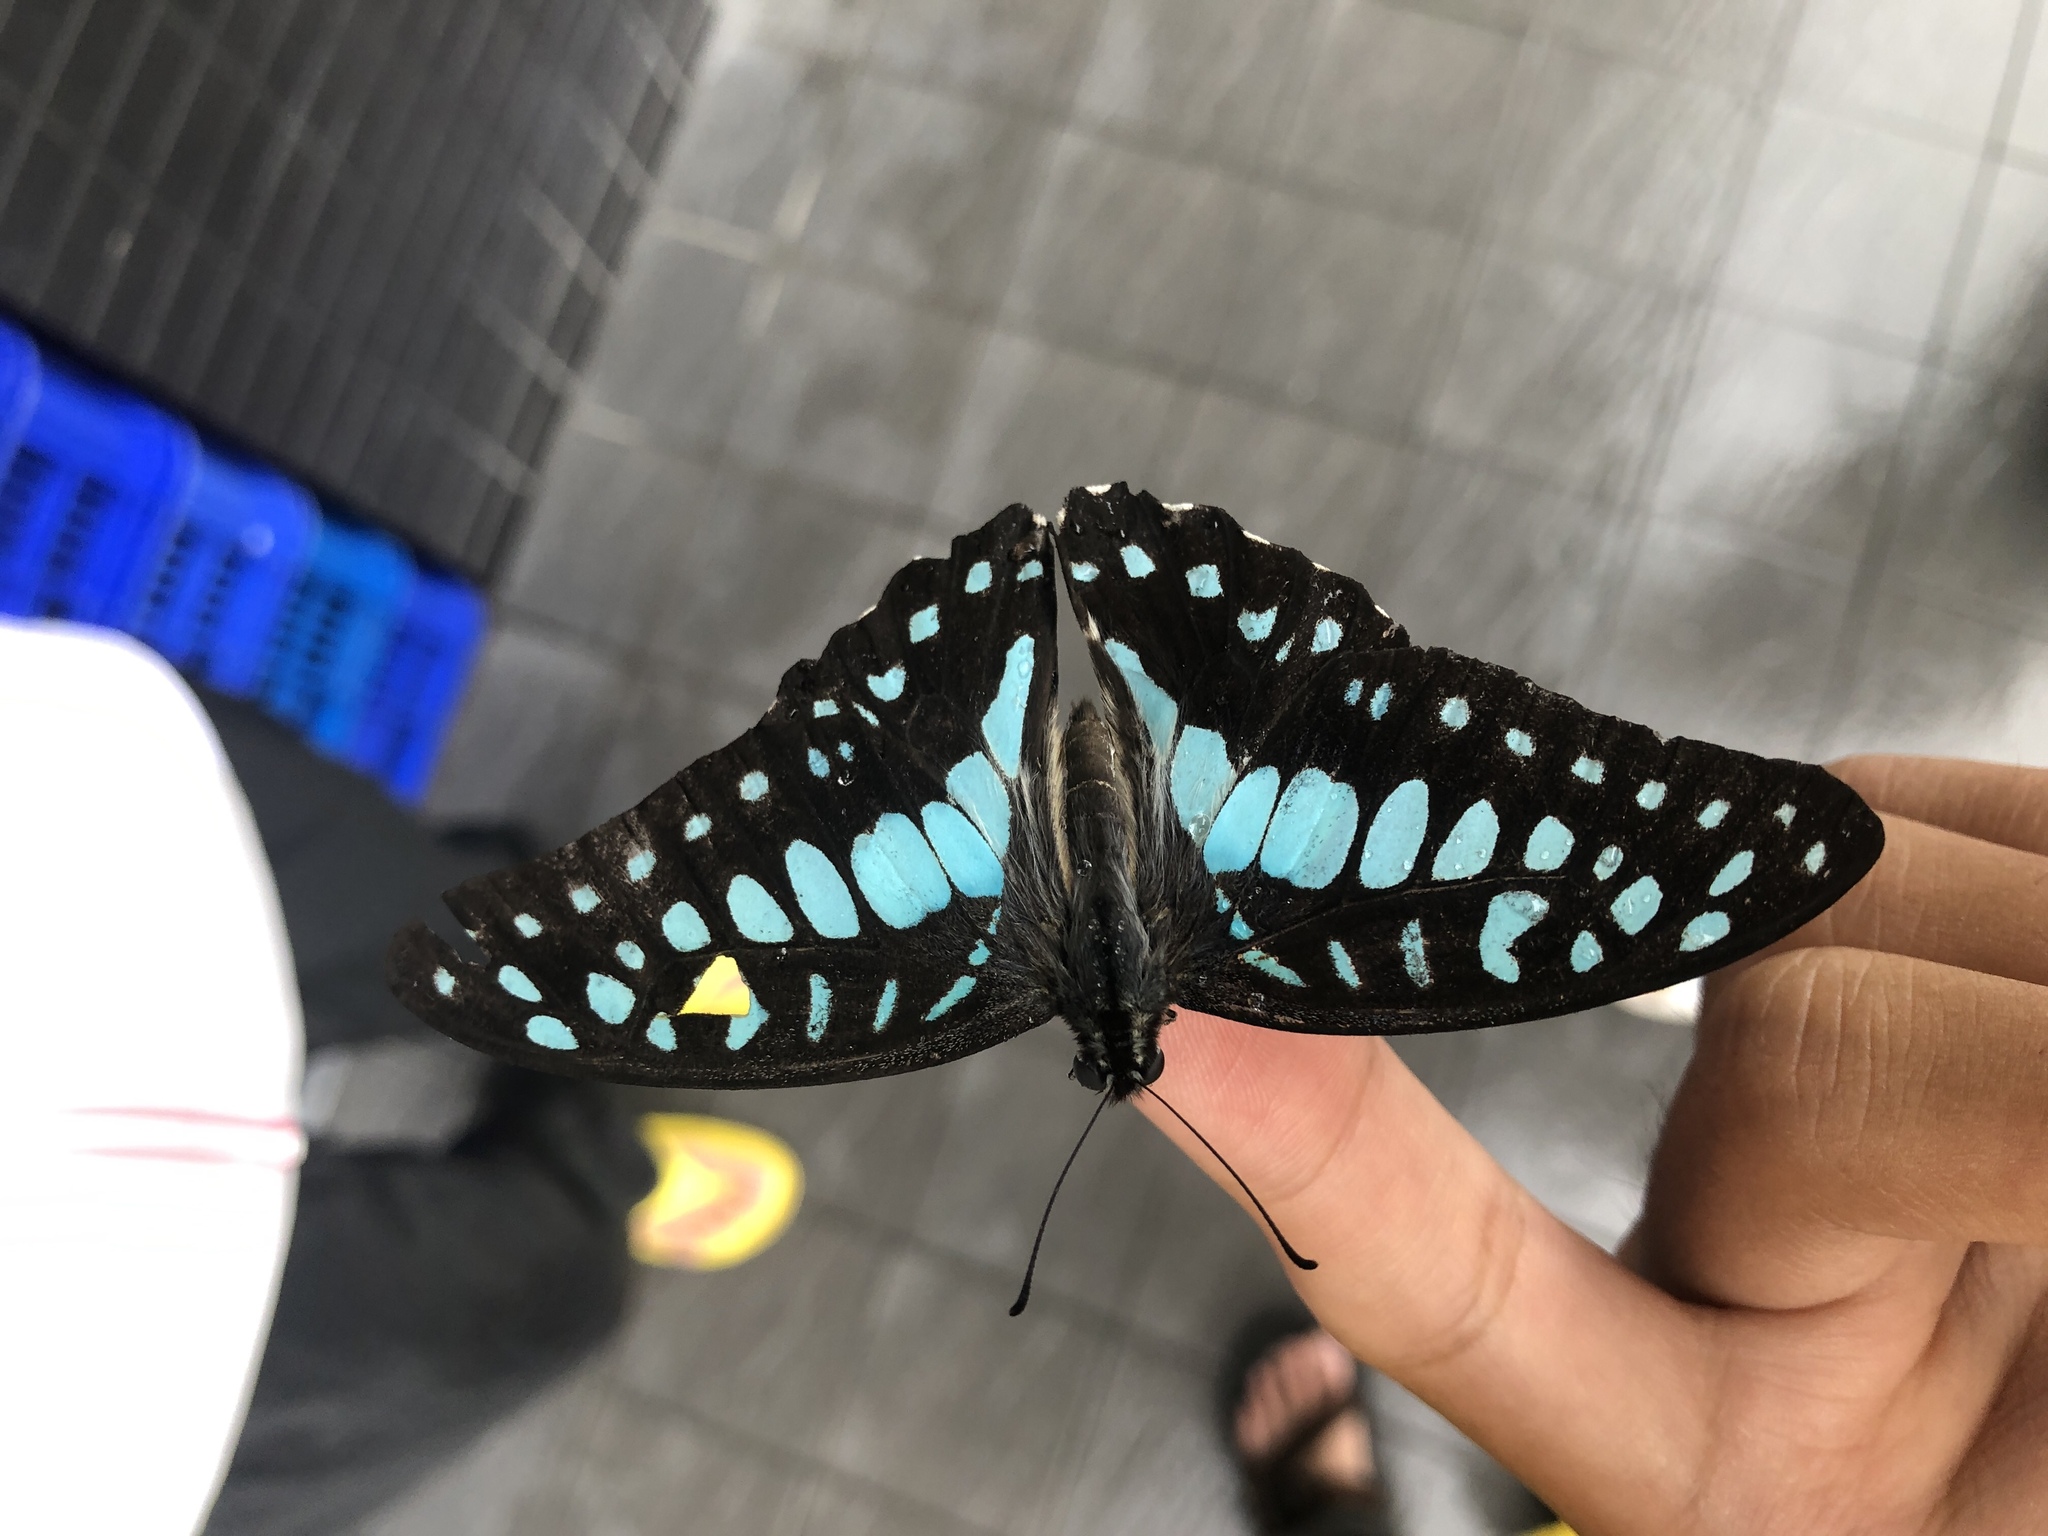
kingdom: Animalia
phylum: Arthropoda
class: Insecta
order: Lepidoptera
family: Papilionidae
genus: Graphium
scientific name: Graphium doson
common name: Common jay
